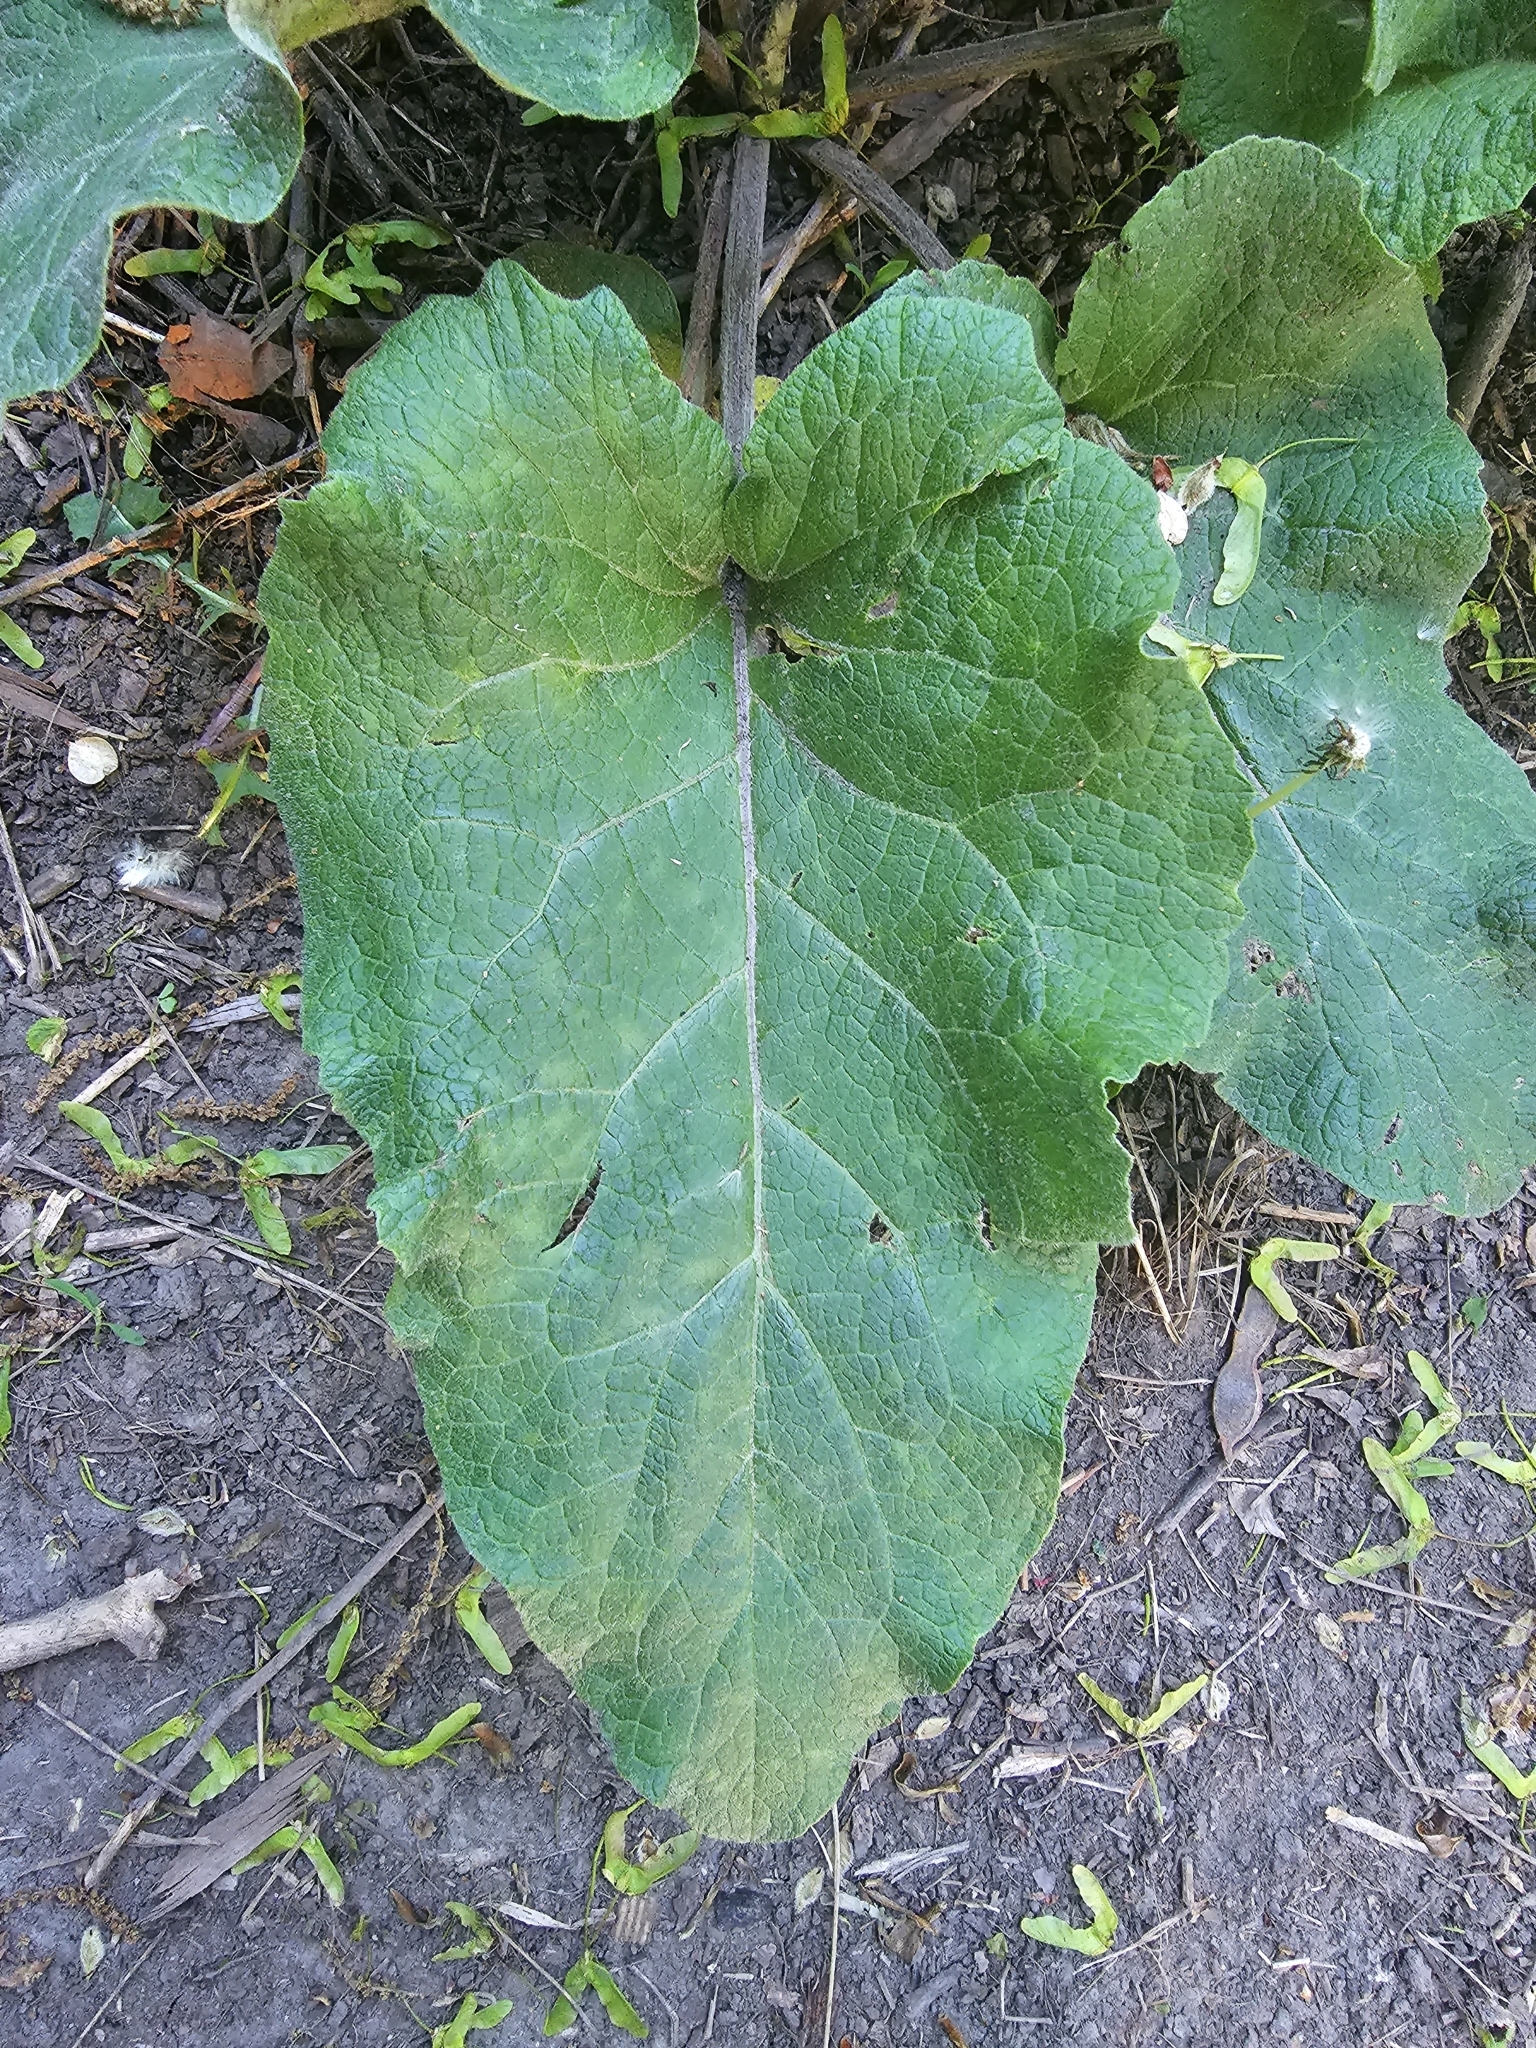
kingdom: Plantae
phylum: Tracheophyta
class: Magnoliopsida
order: Asterales
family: Asteraceae
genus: Arctium
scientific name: Arctium
